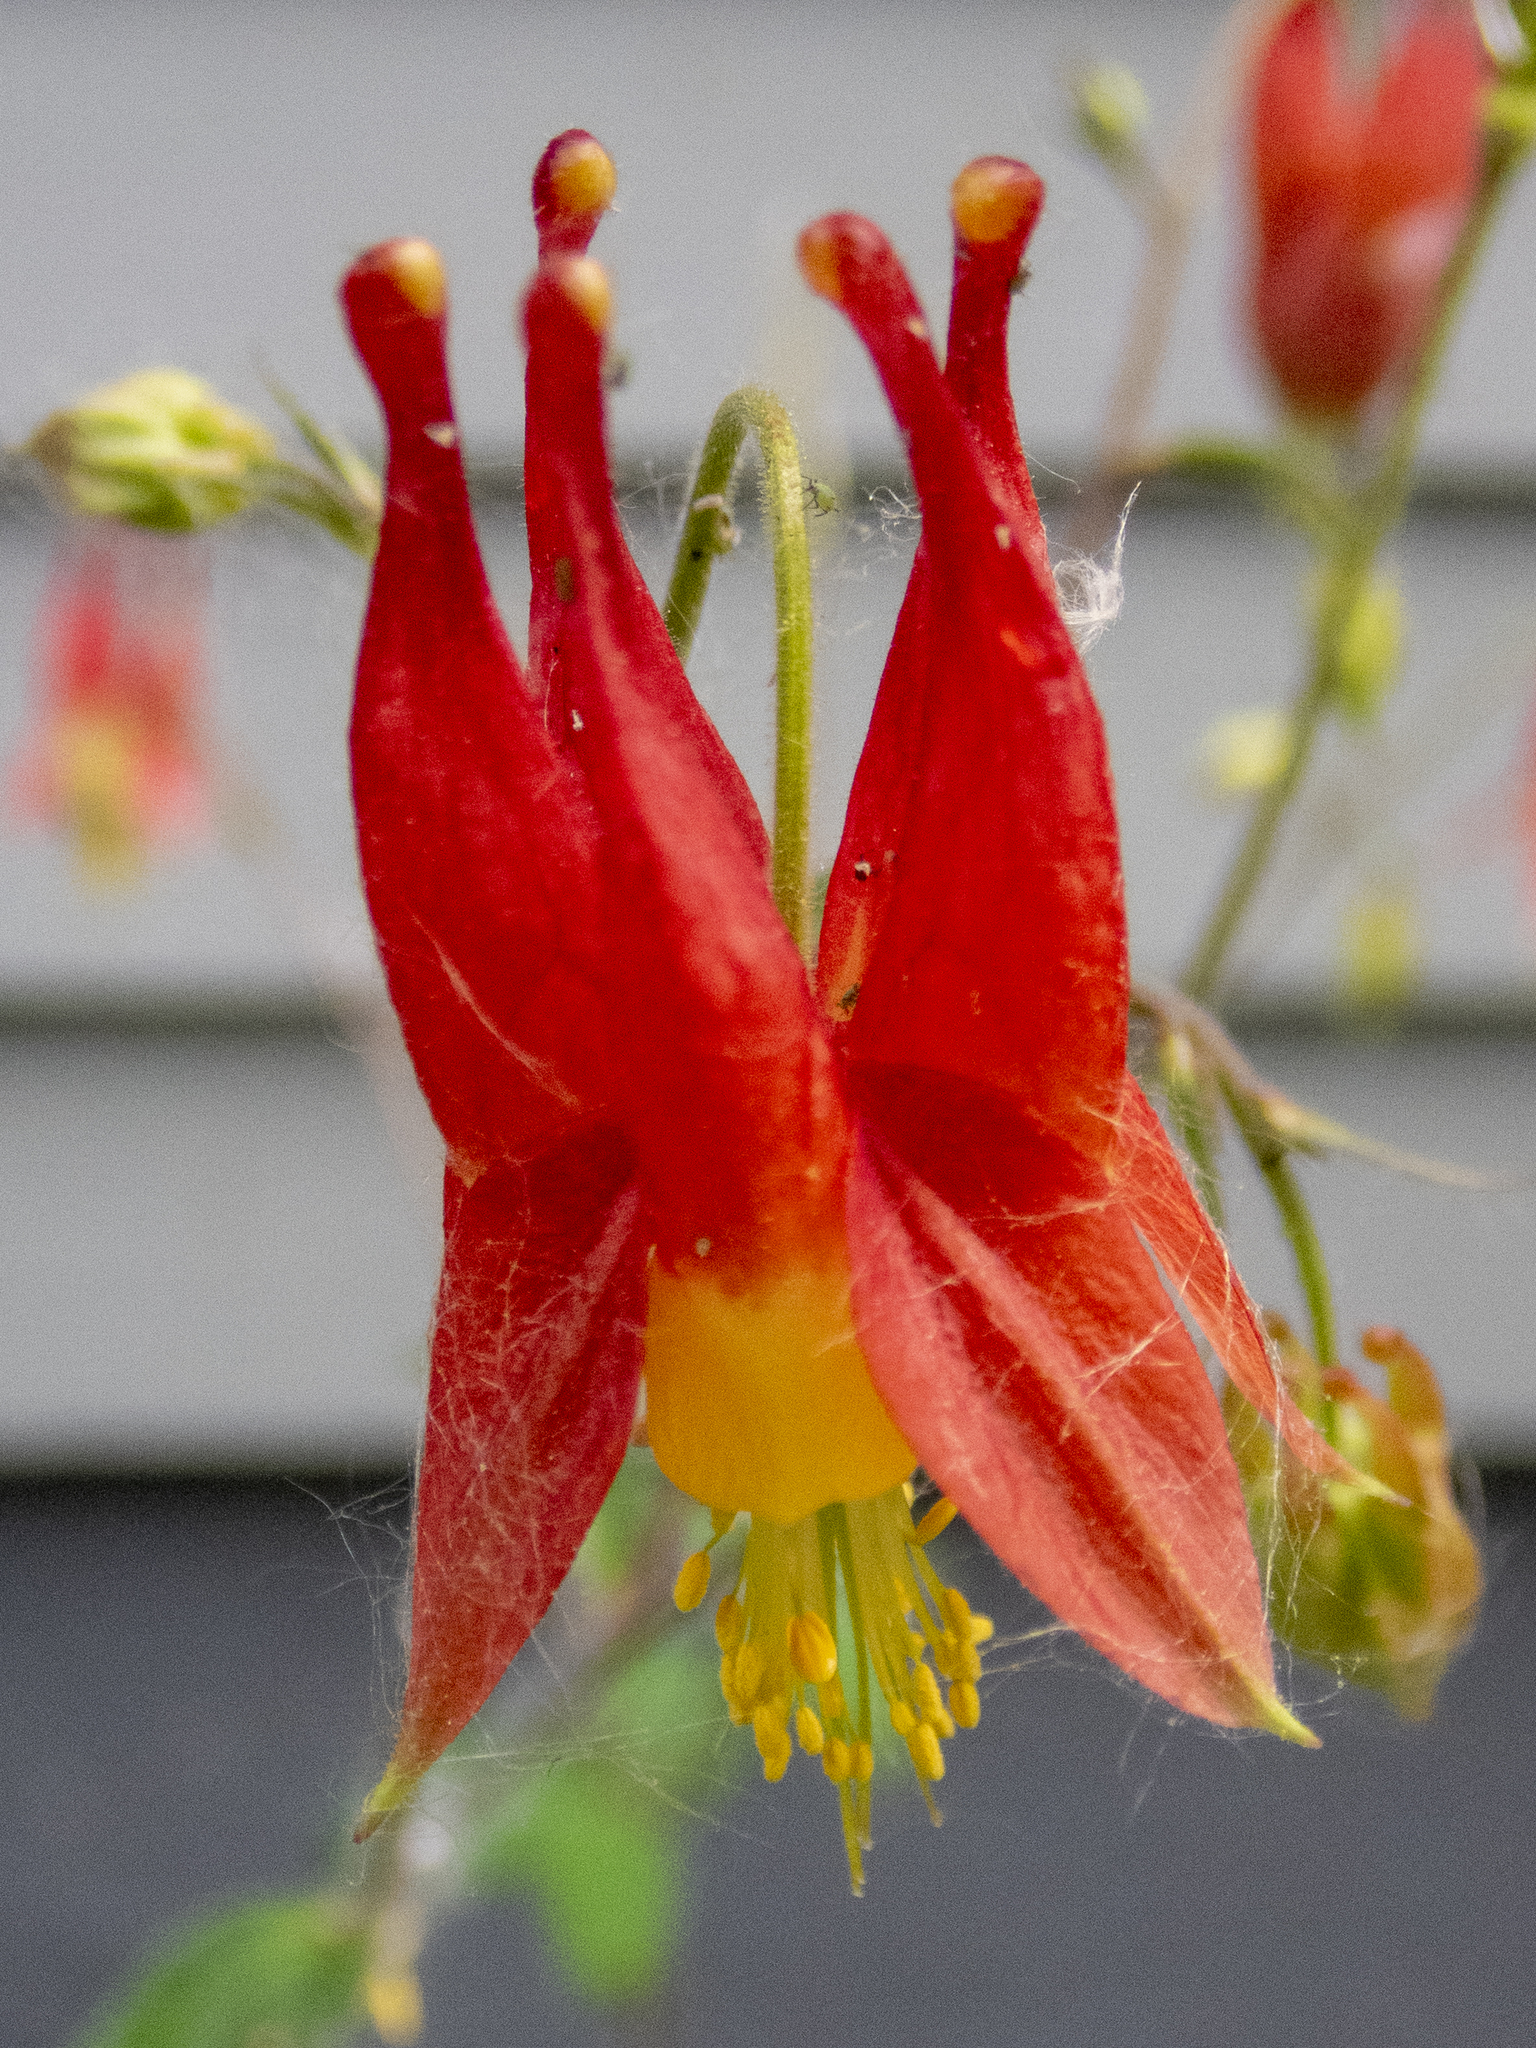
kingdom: Plantae
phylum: Tracheophyta
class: Magnoliopsida
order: Ranunculales
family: Ranunculaceae
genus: Aquilegia
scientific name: Aquilegia canadensis
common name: American columbine
